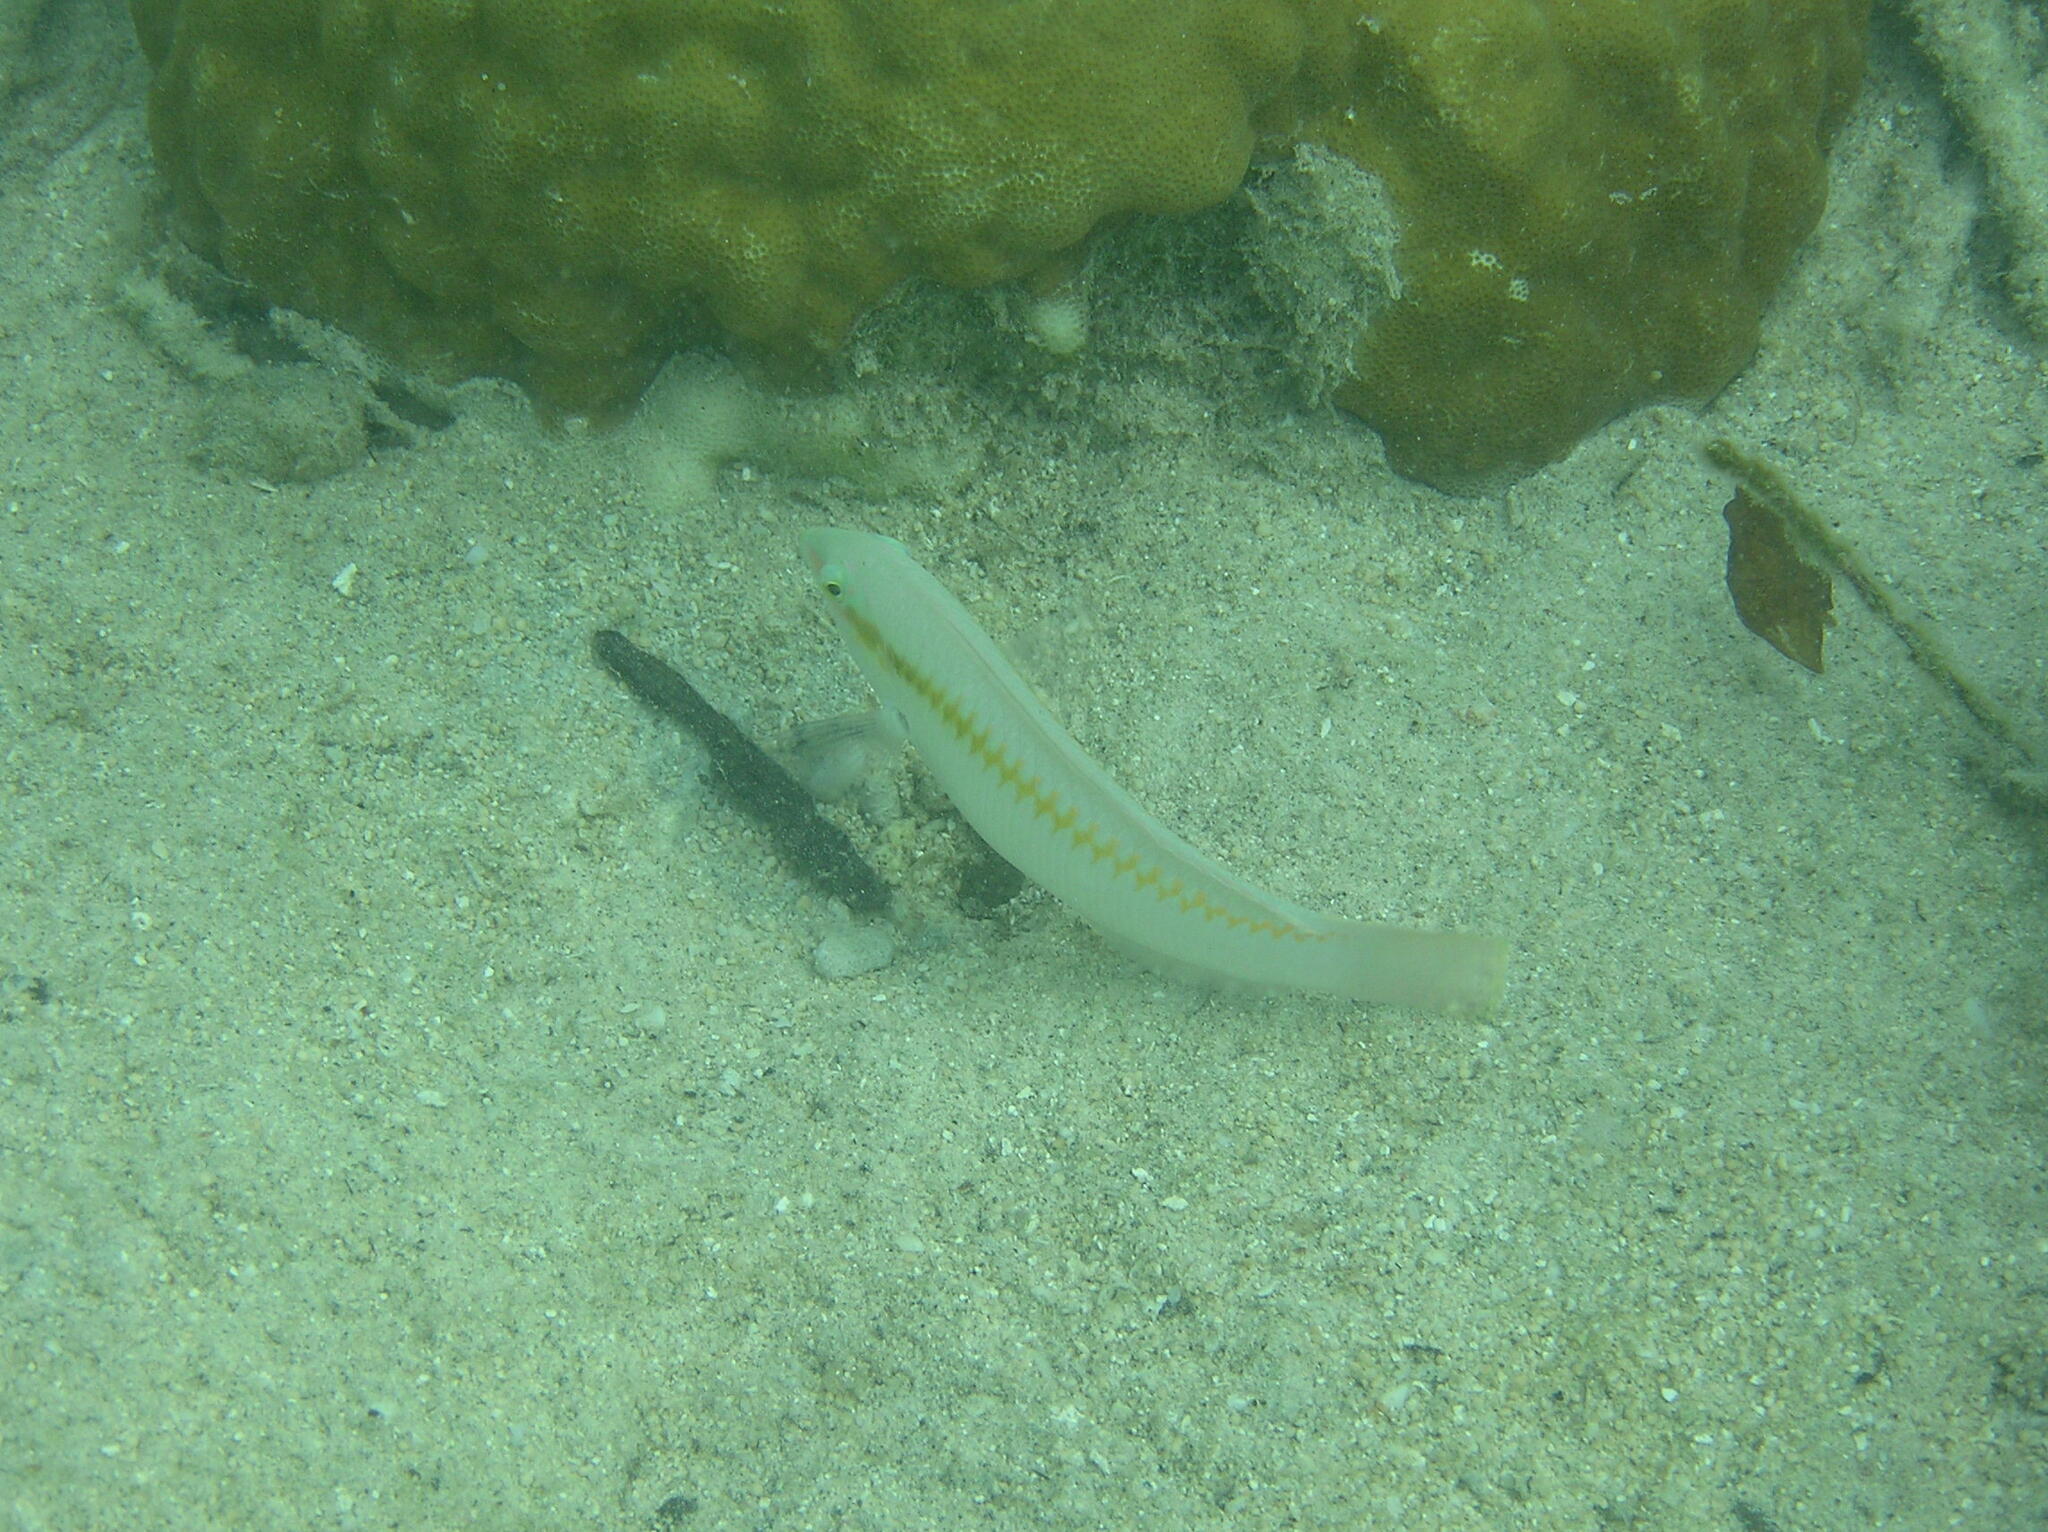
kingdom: Animalia
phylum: Chordata
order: Perciformes
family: Labridae
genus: Halichoeres
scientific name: Halichoeres scapularis
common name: Brownbanded wrasse
